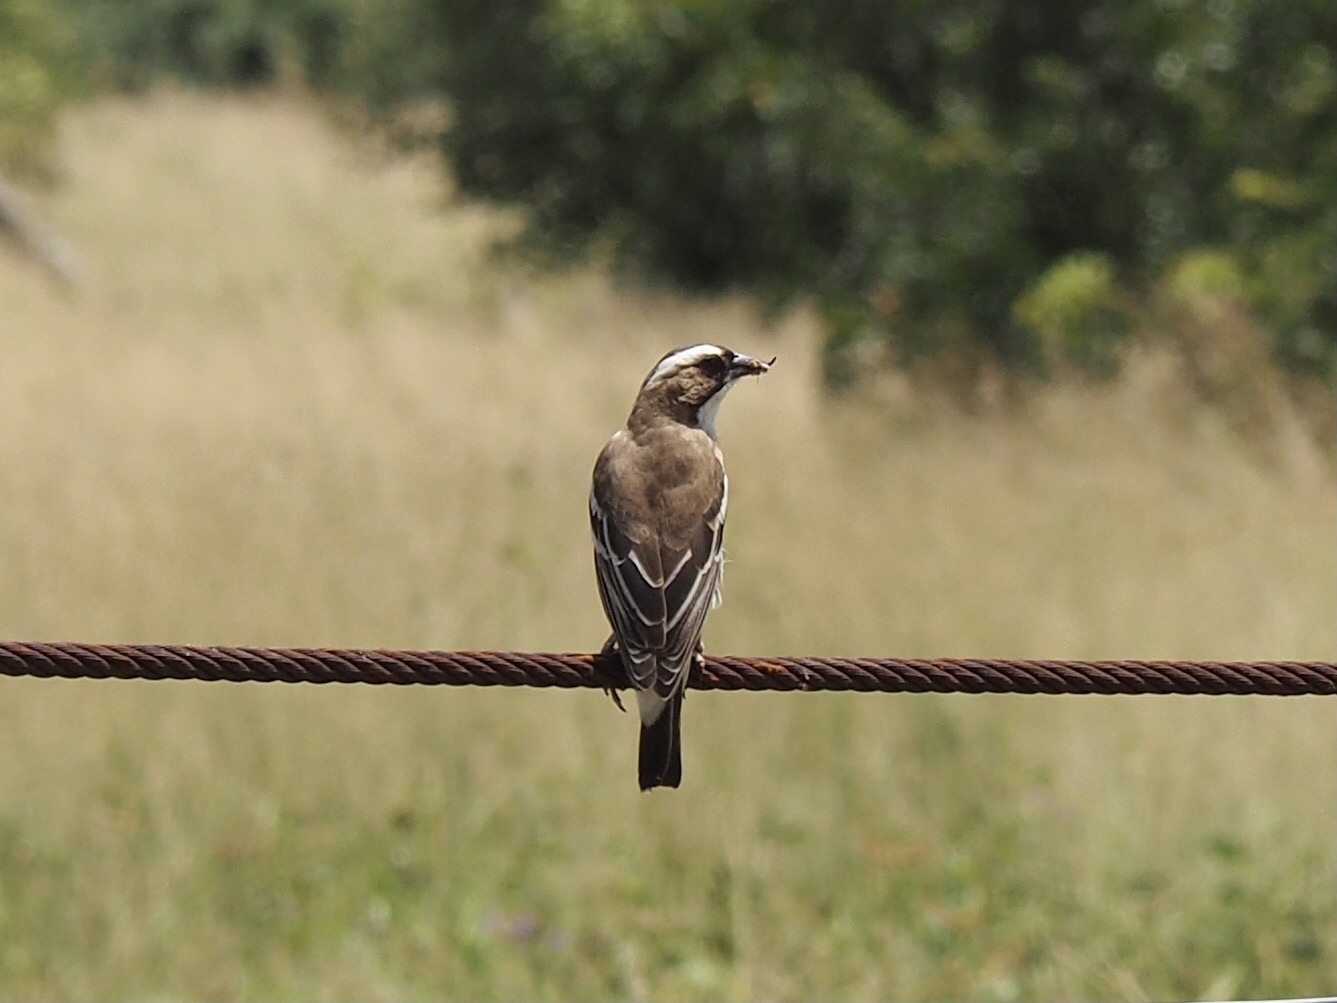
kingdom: Animalia
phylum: Chordata
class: Aves
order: Passeriformes
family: Passeridae
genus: Plocepasser
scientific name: Plocepasser mahali
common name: White-browed sparrow-weaver
